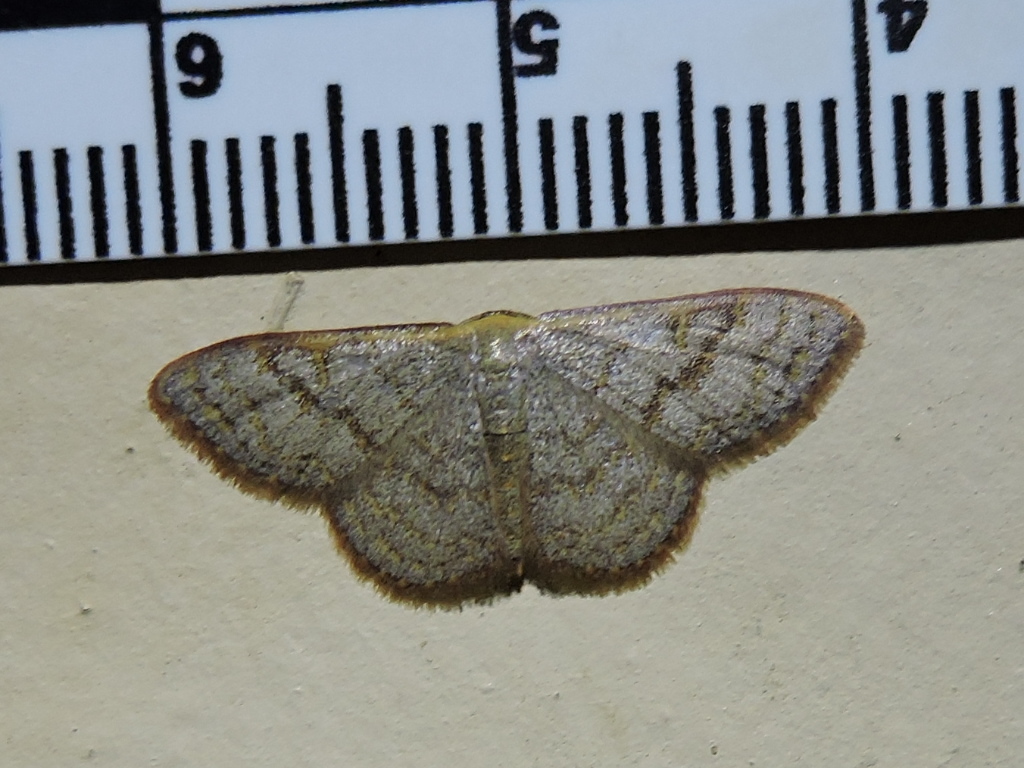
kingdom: Animalia
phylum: Arthropoda
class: Insecta
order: Lepidoptera
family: Geometridae
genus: Leptostales
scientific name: Leptostales pannaria
